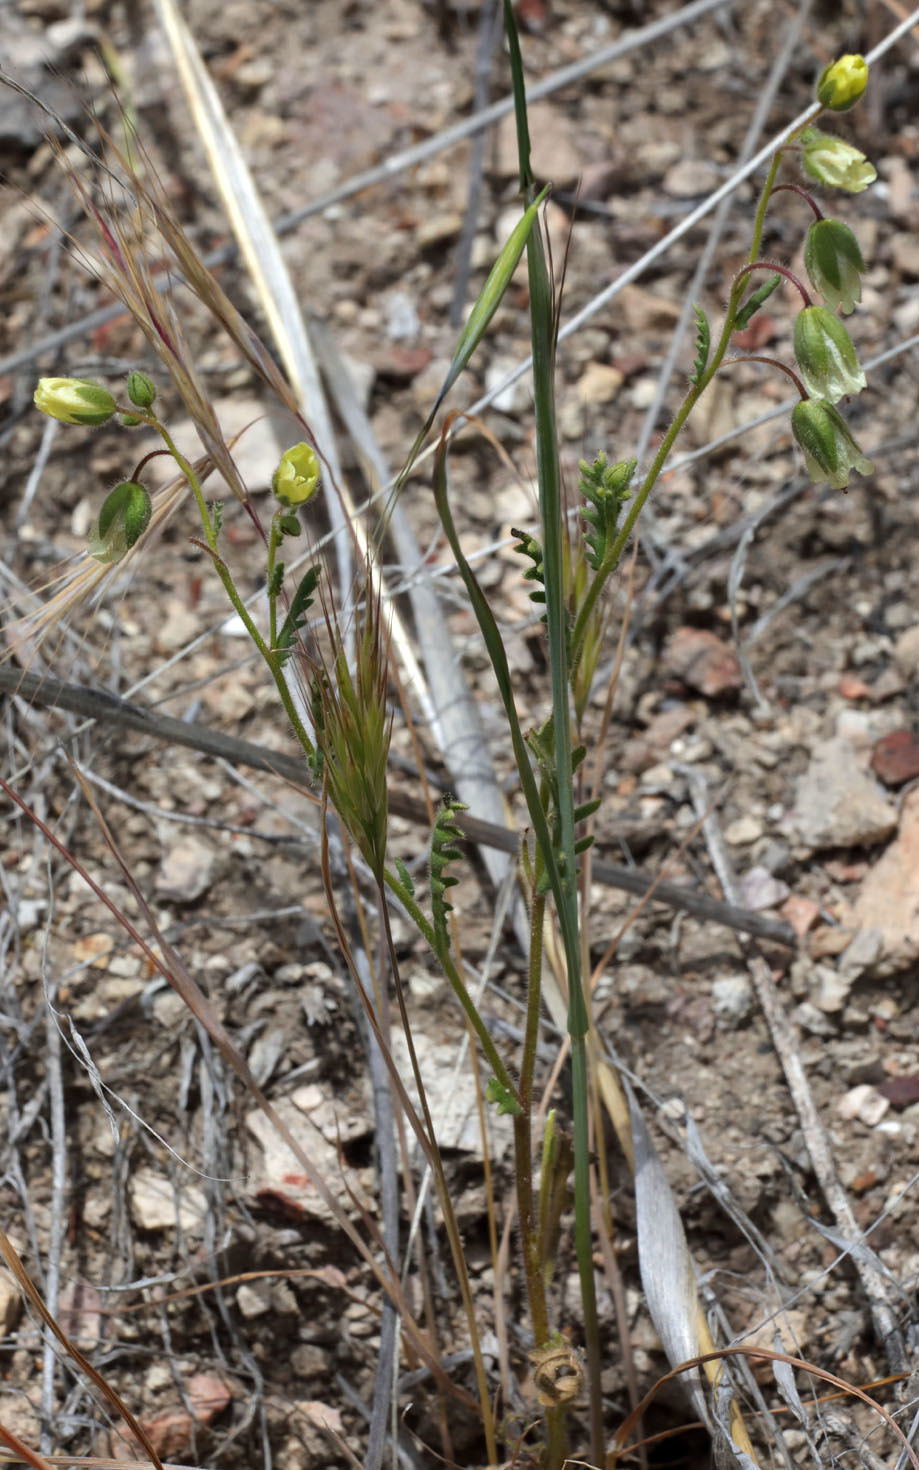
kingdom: Plantae
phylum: Tracheophyta
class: Magnoliopsida
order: Boraginales
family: Hydrophyllaceae
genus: Emmenanthe
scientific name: Emmenanthe penduliflora
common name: Whispering-bells
